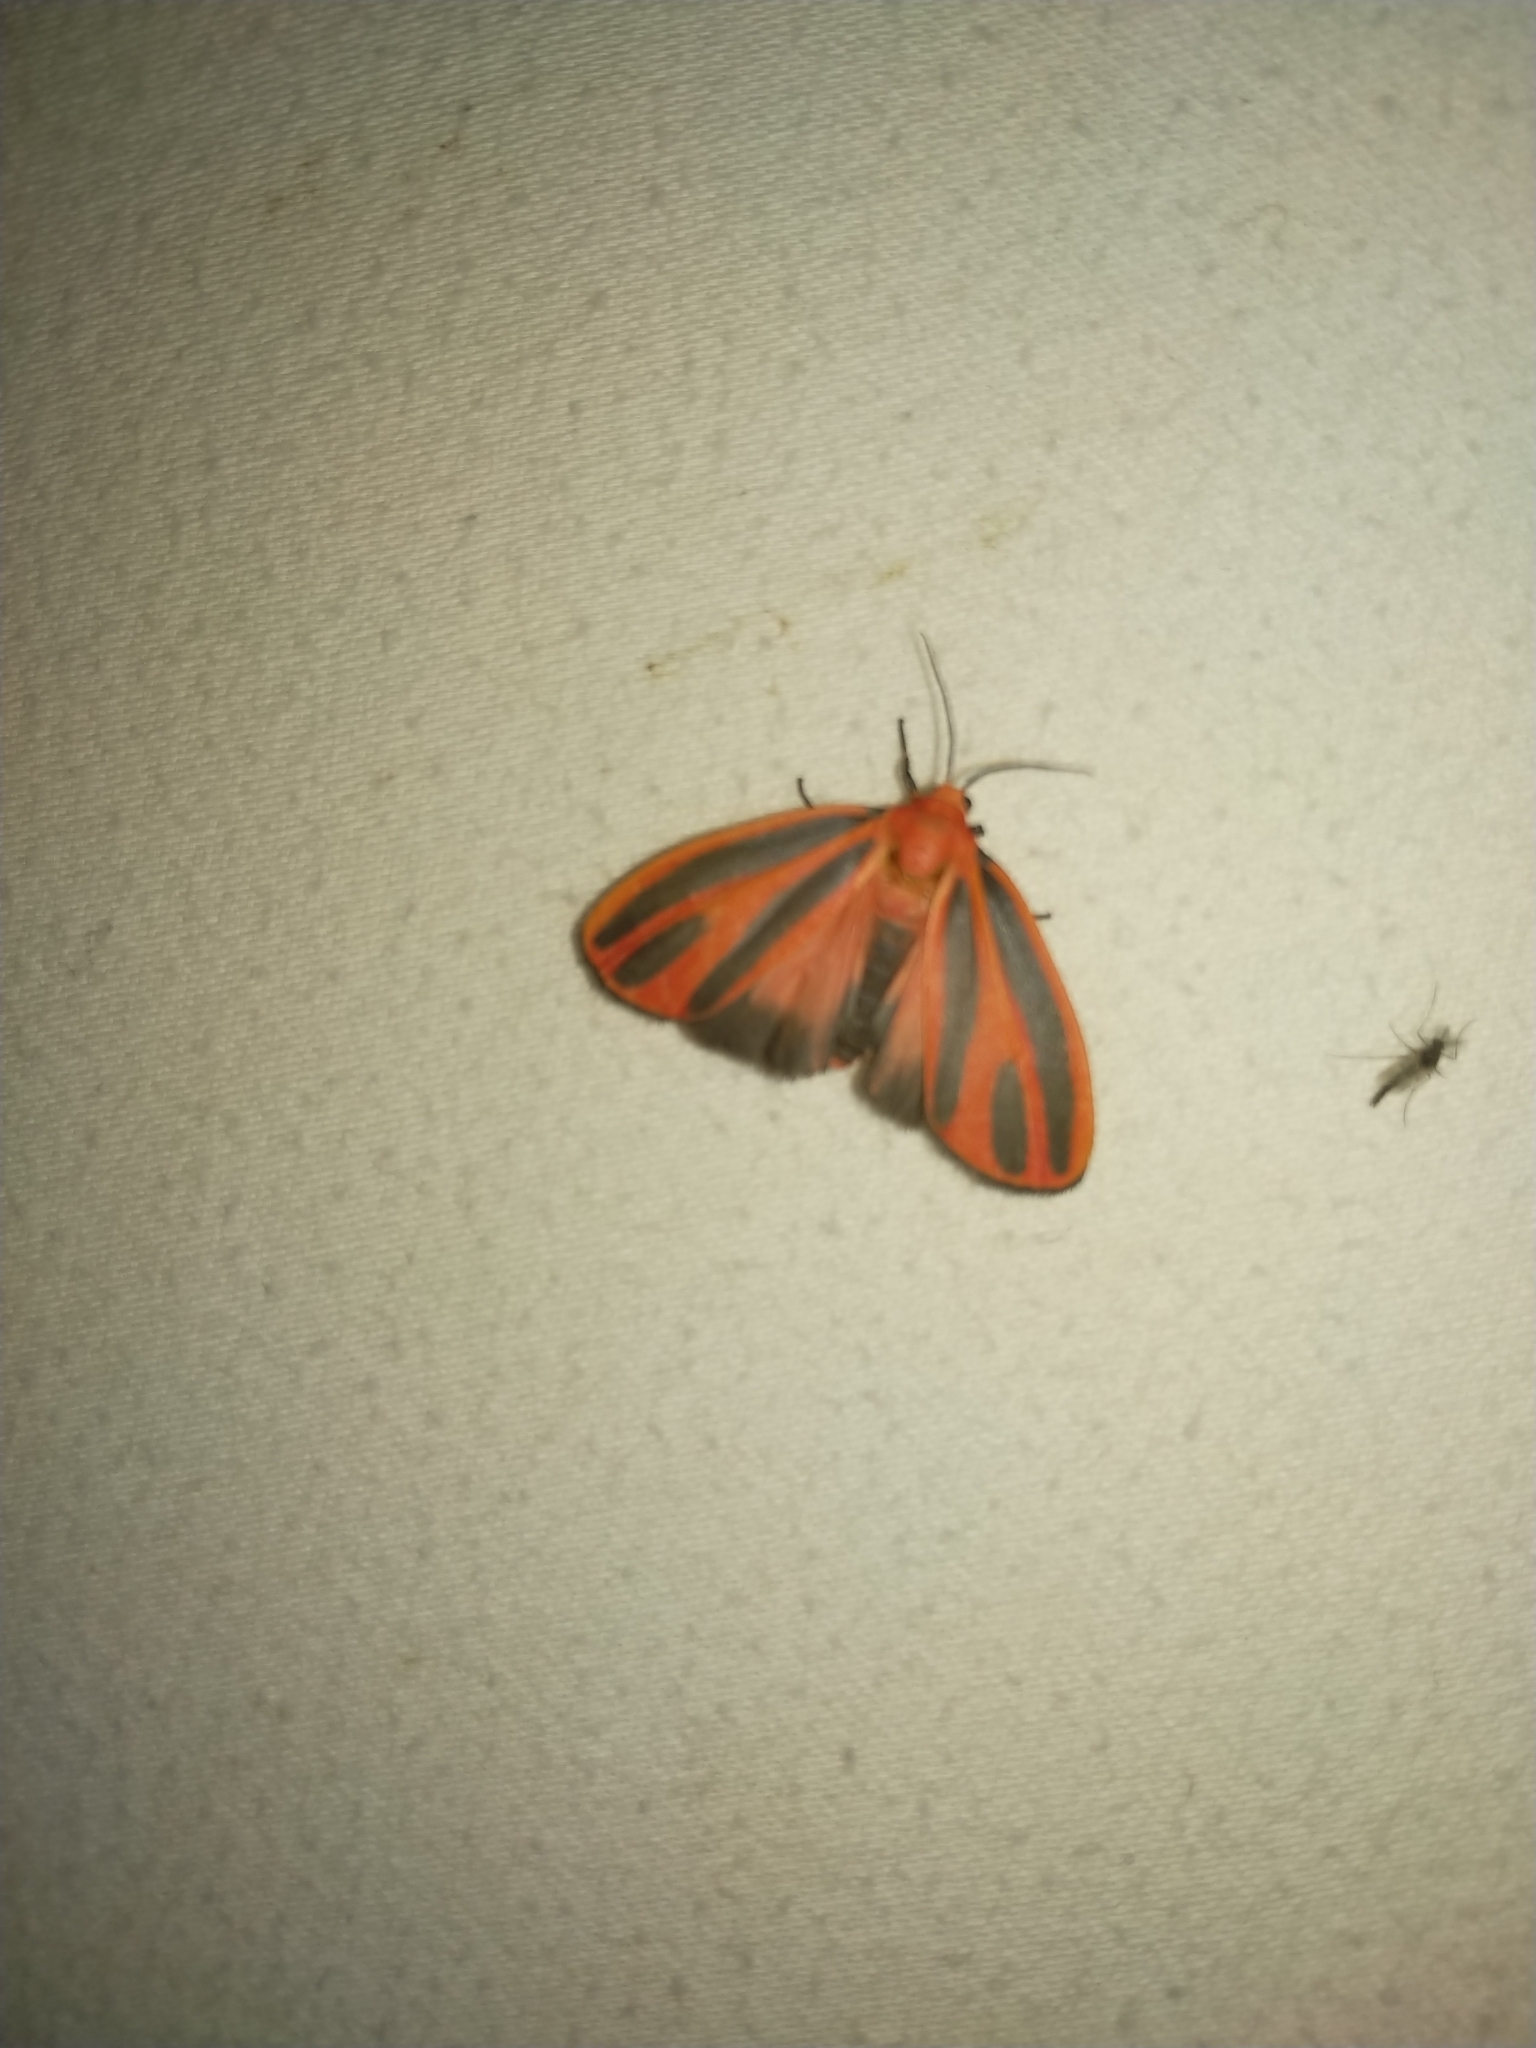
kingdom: Animalia
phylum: Arthropoda
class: Insecta
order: Lepidoptera
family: Erebidae
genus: Hypoprepia
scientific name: Hypoprepia miniata
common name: Scarlet-winged lichen moth
